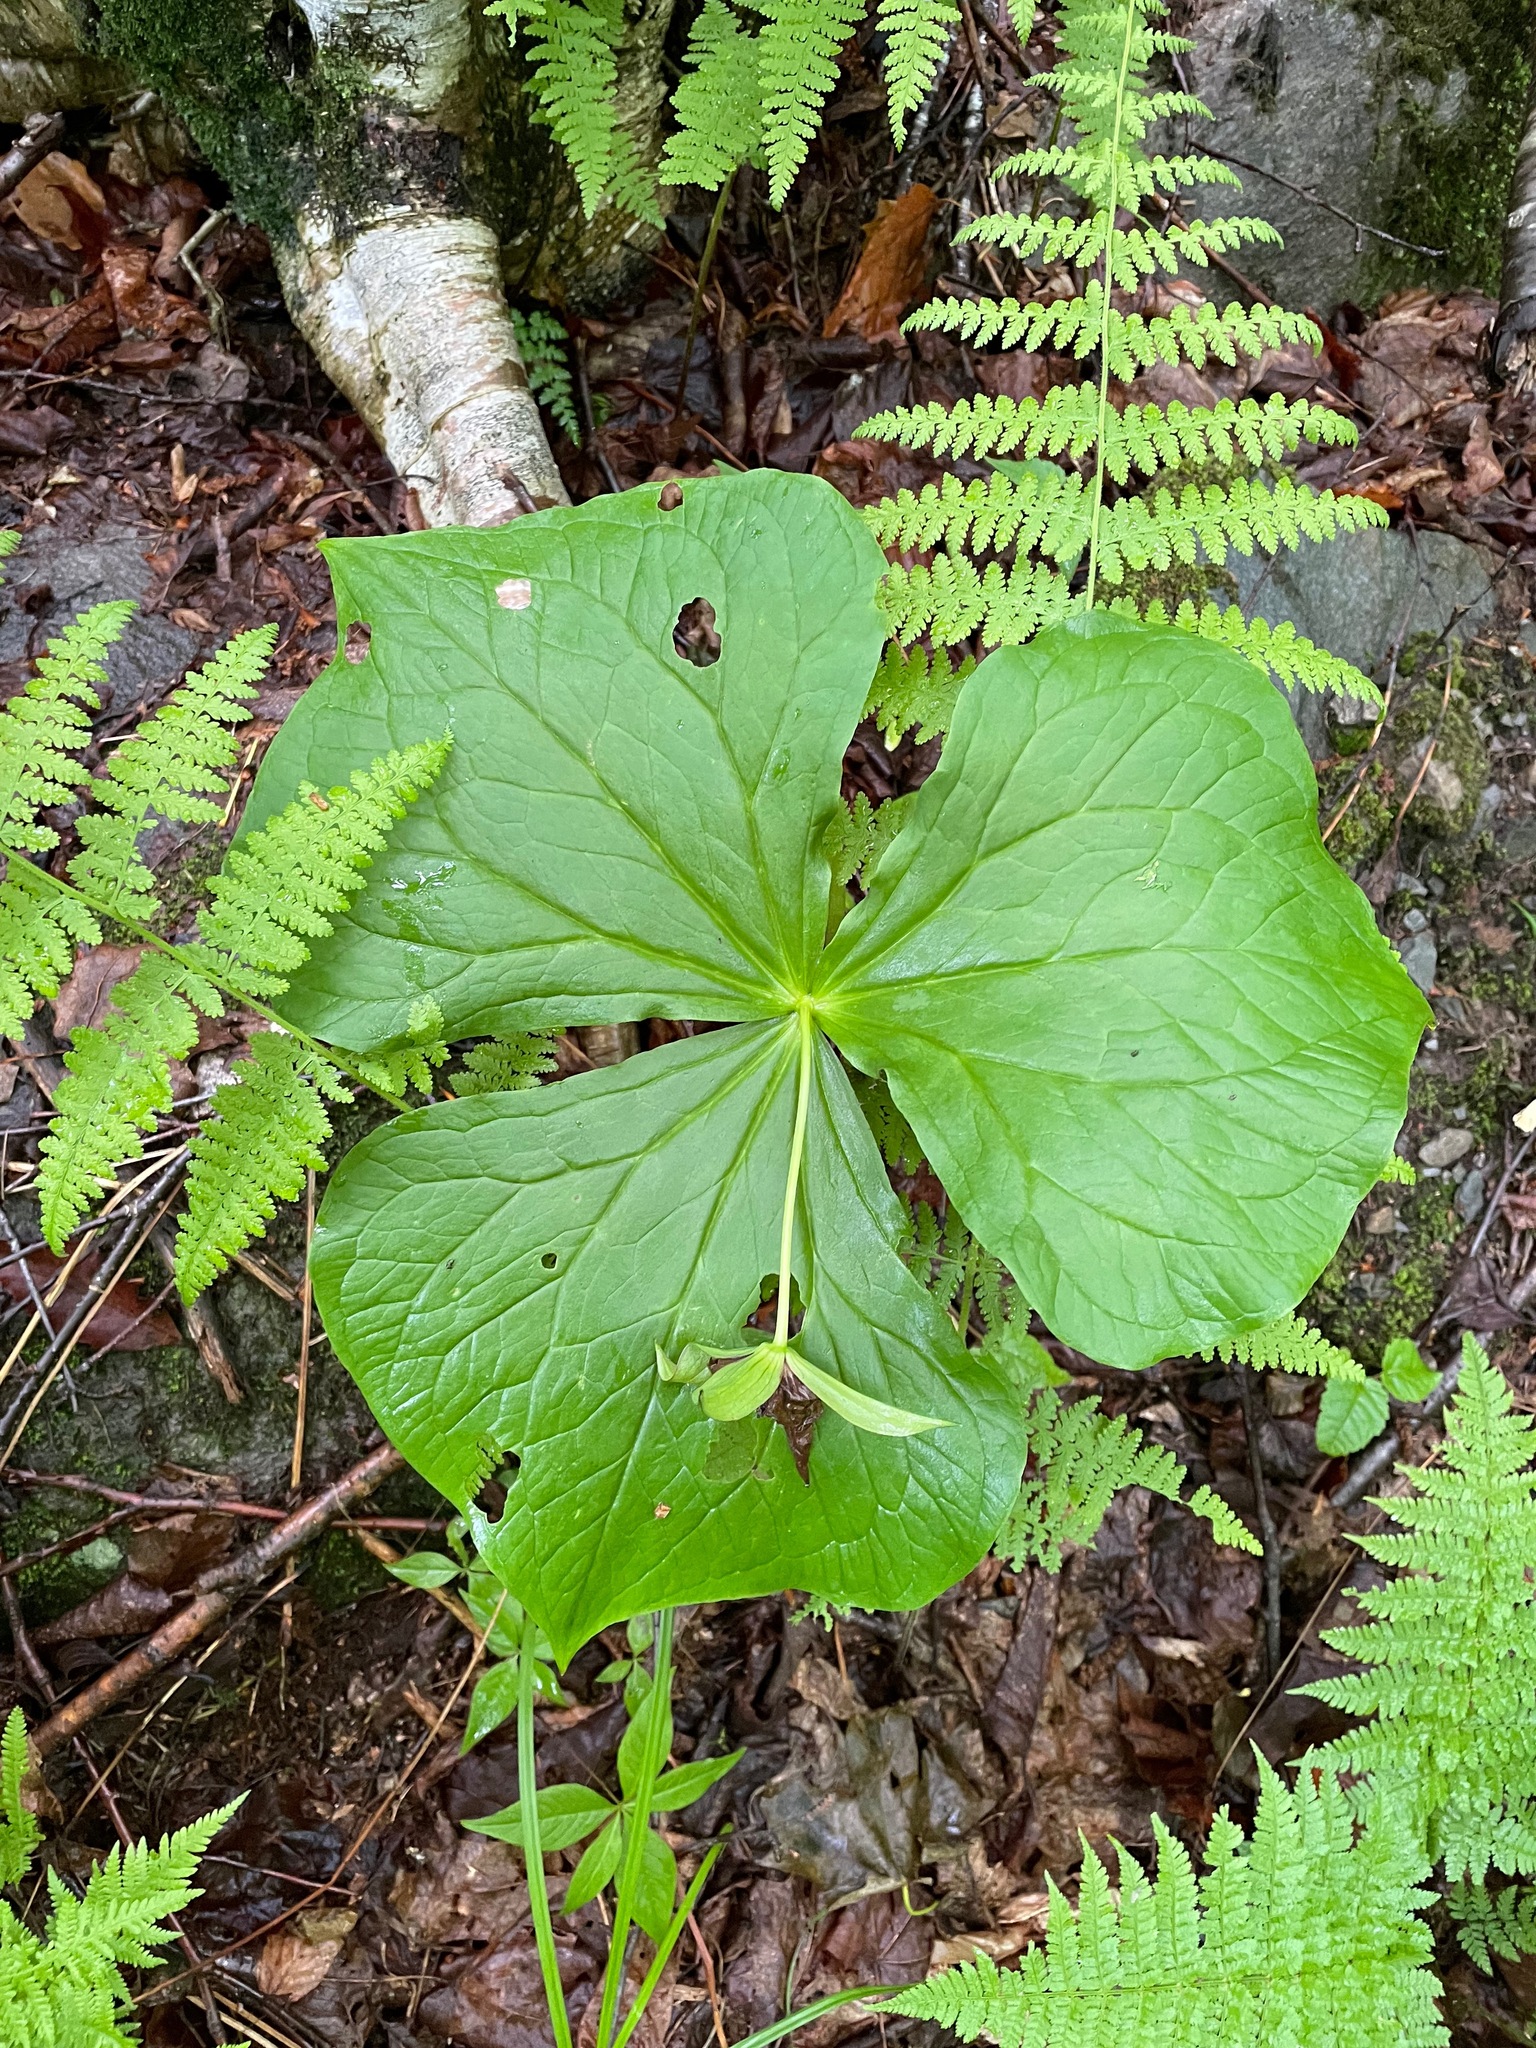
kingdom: Plantae
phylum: Tracheophyta
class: Liliopsida
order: Liliales
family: Melanthiaceae
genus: Trillium
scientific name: Trillium erectum
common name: Purple trillium
